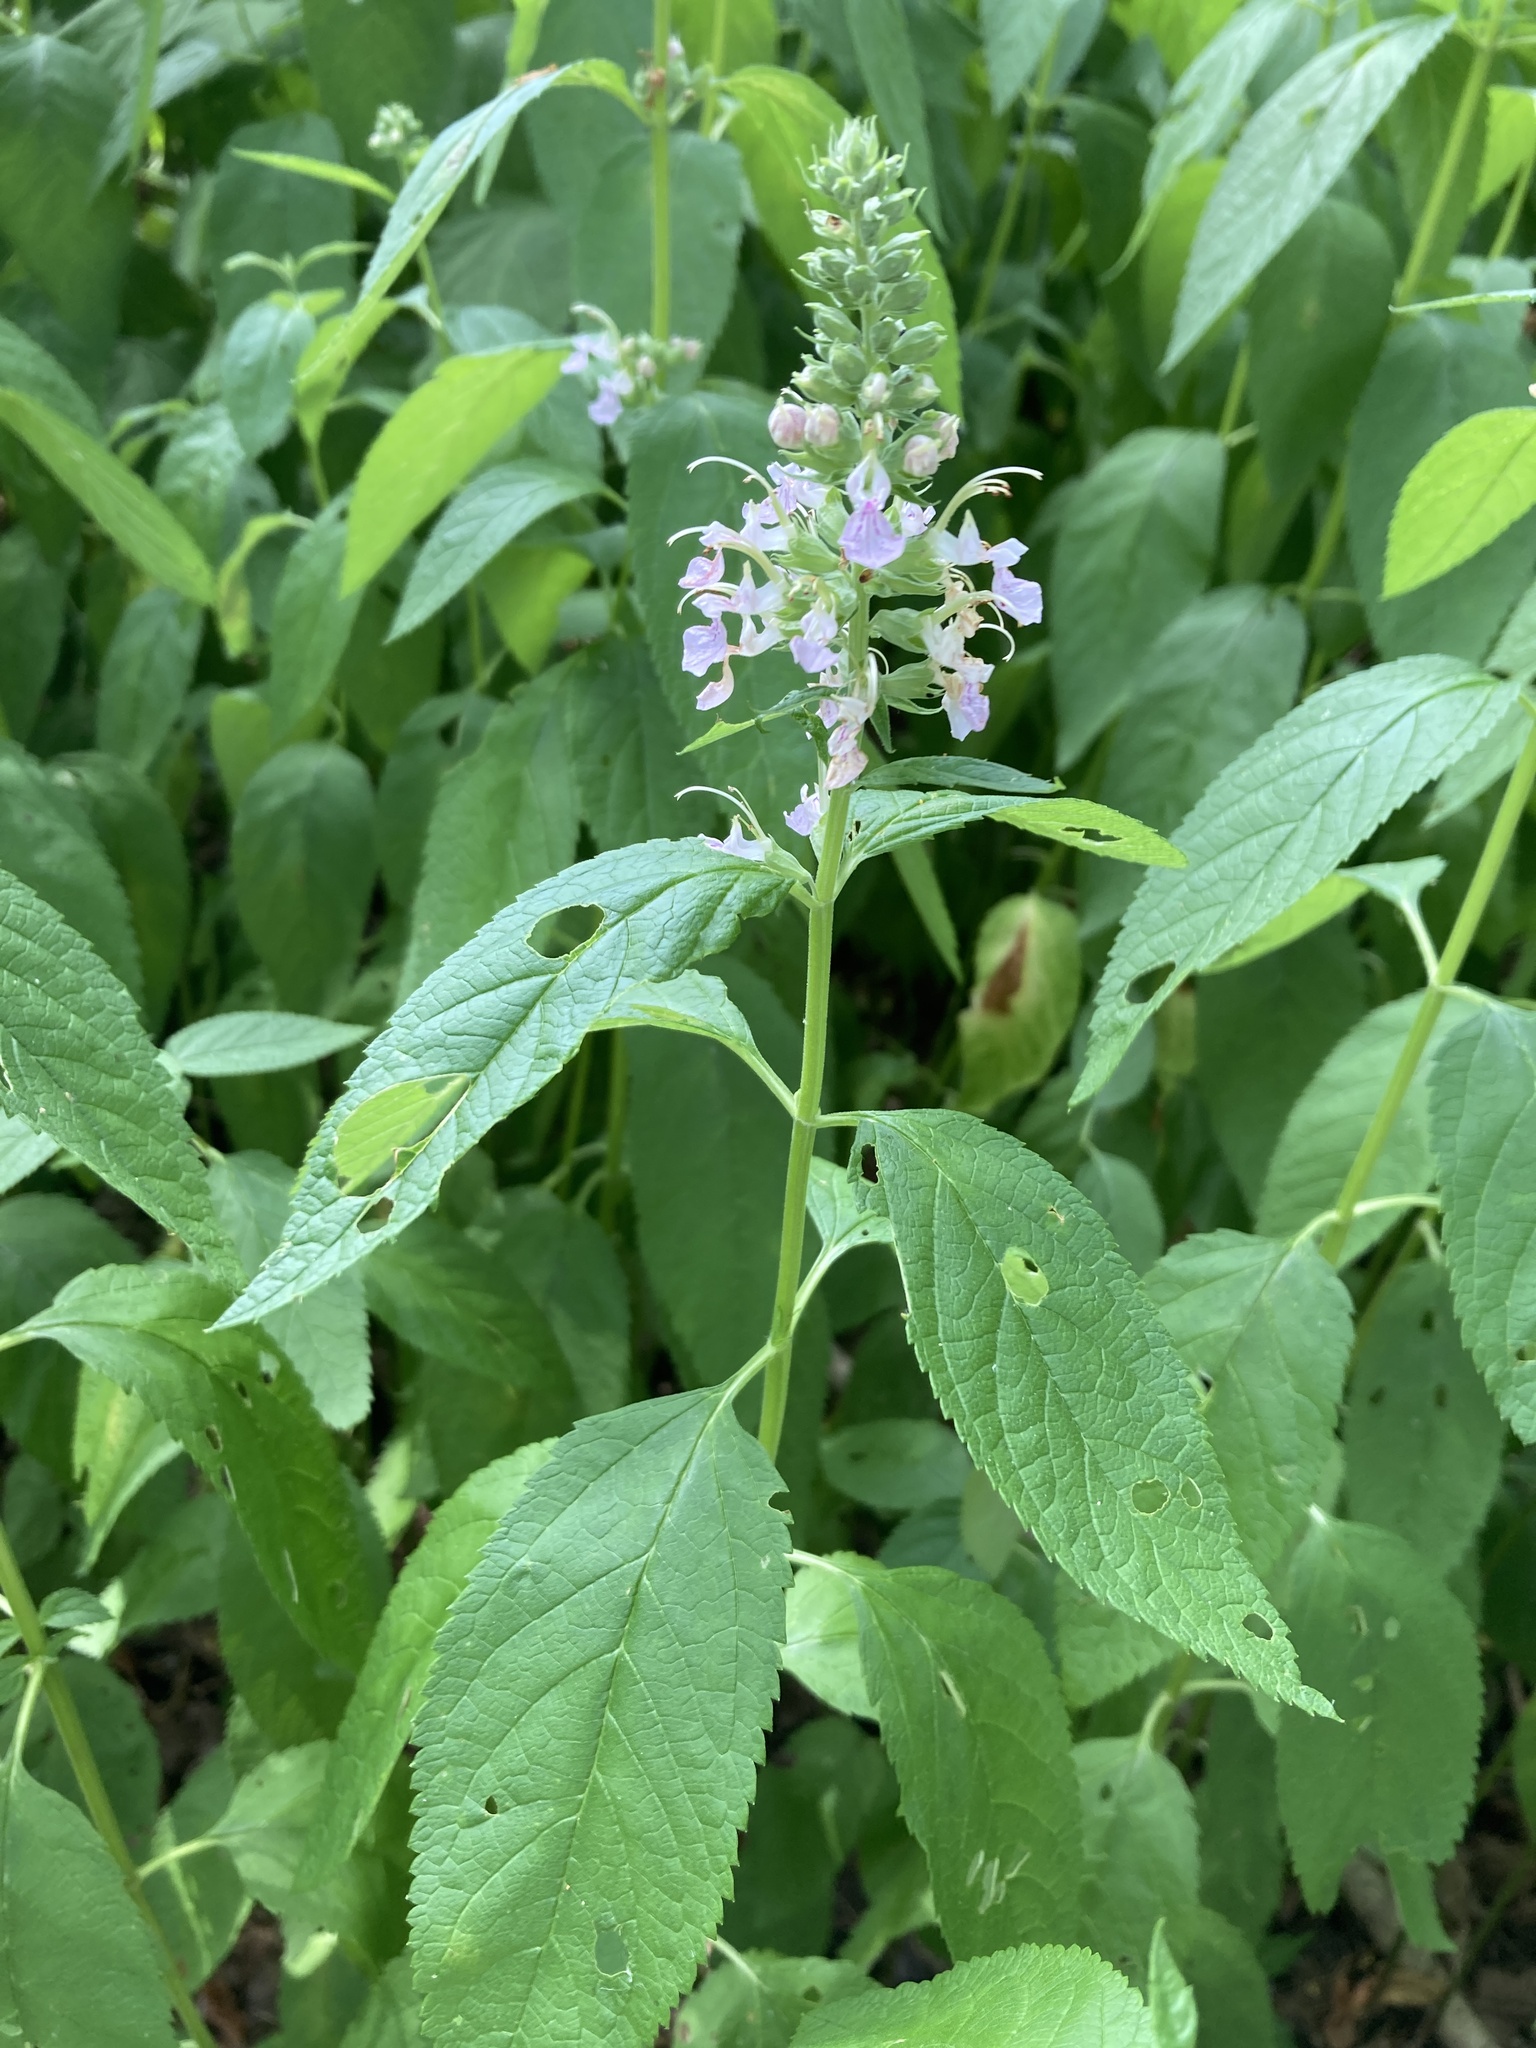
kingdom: Plantae
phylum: Tracheophyta
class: Magnoliopsida
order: Lamiales
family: Lamiaceae
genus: Teucrium
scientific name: Teucrium canadense
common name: American germander
